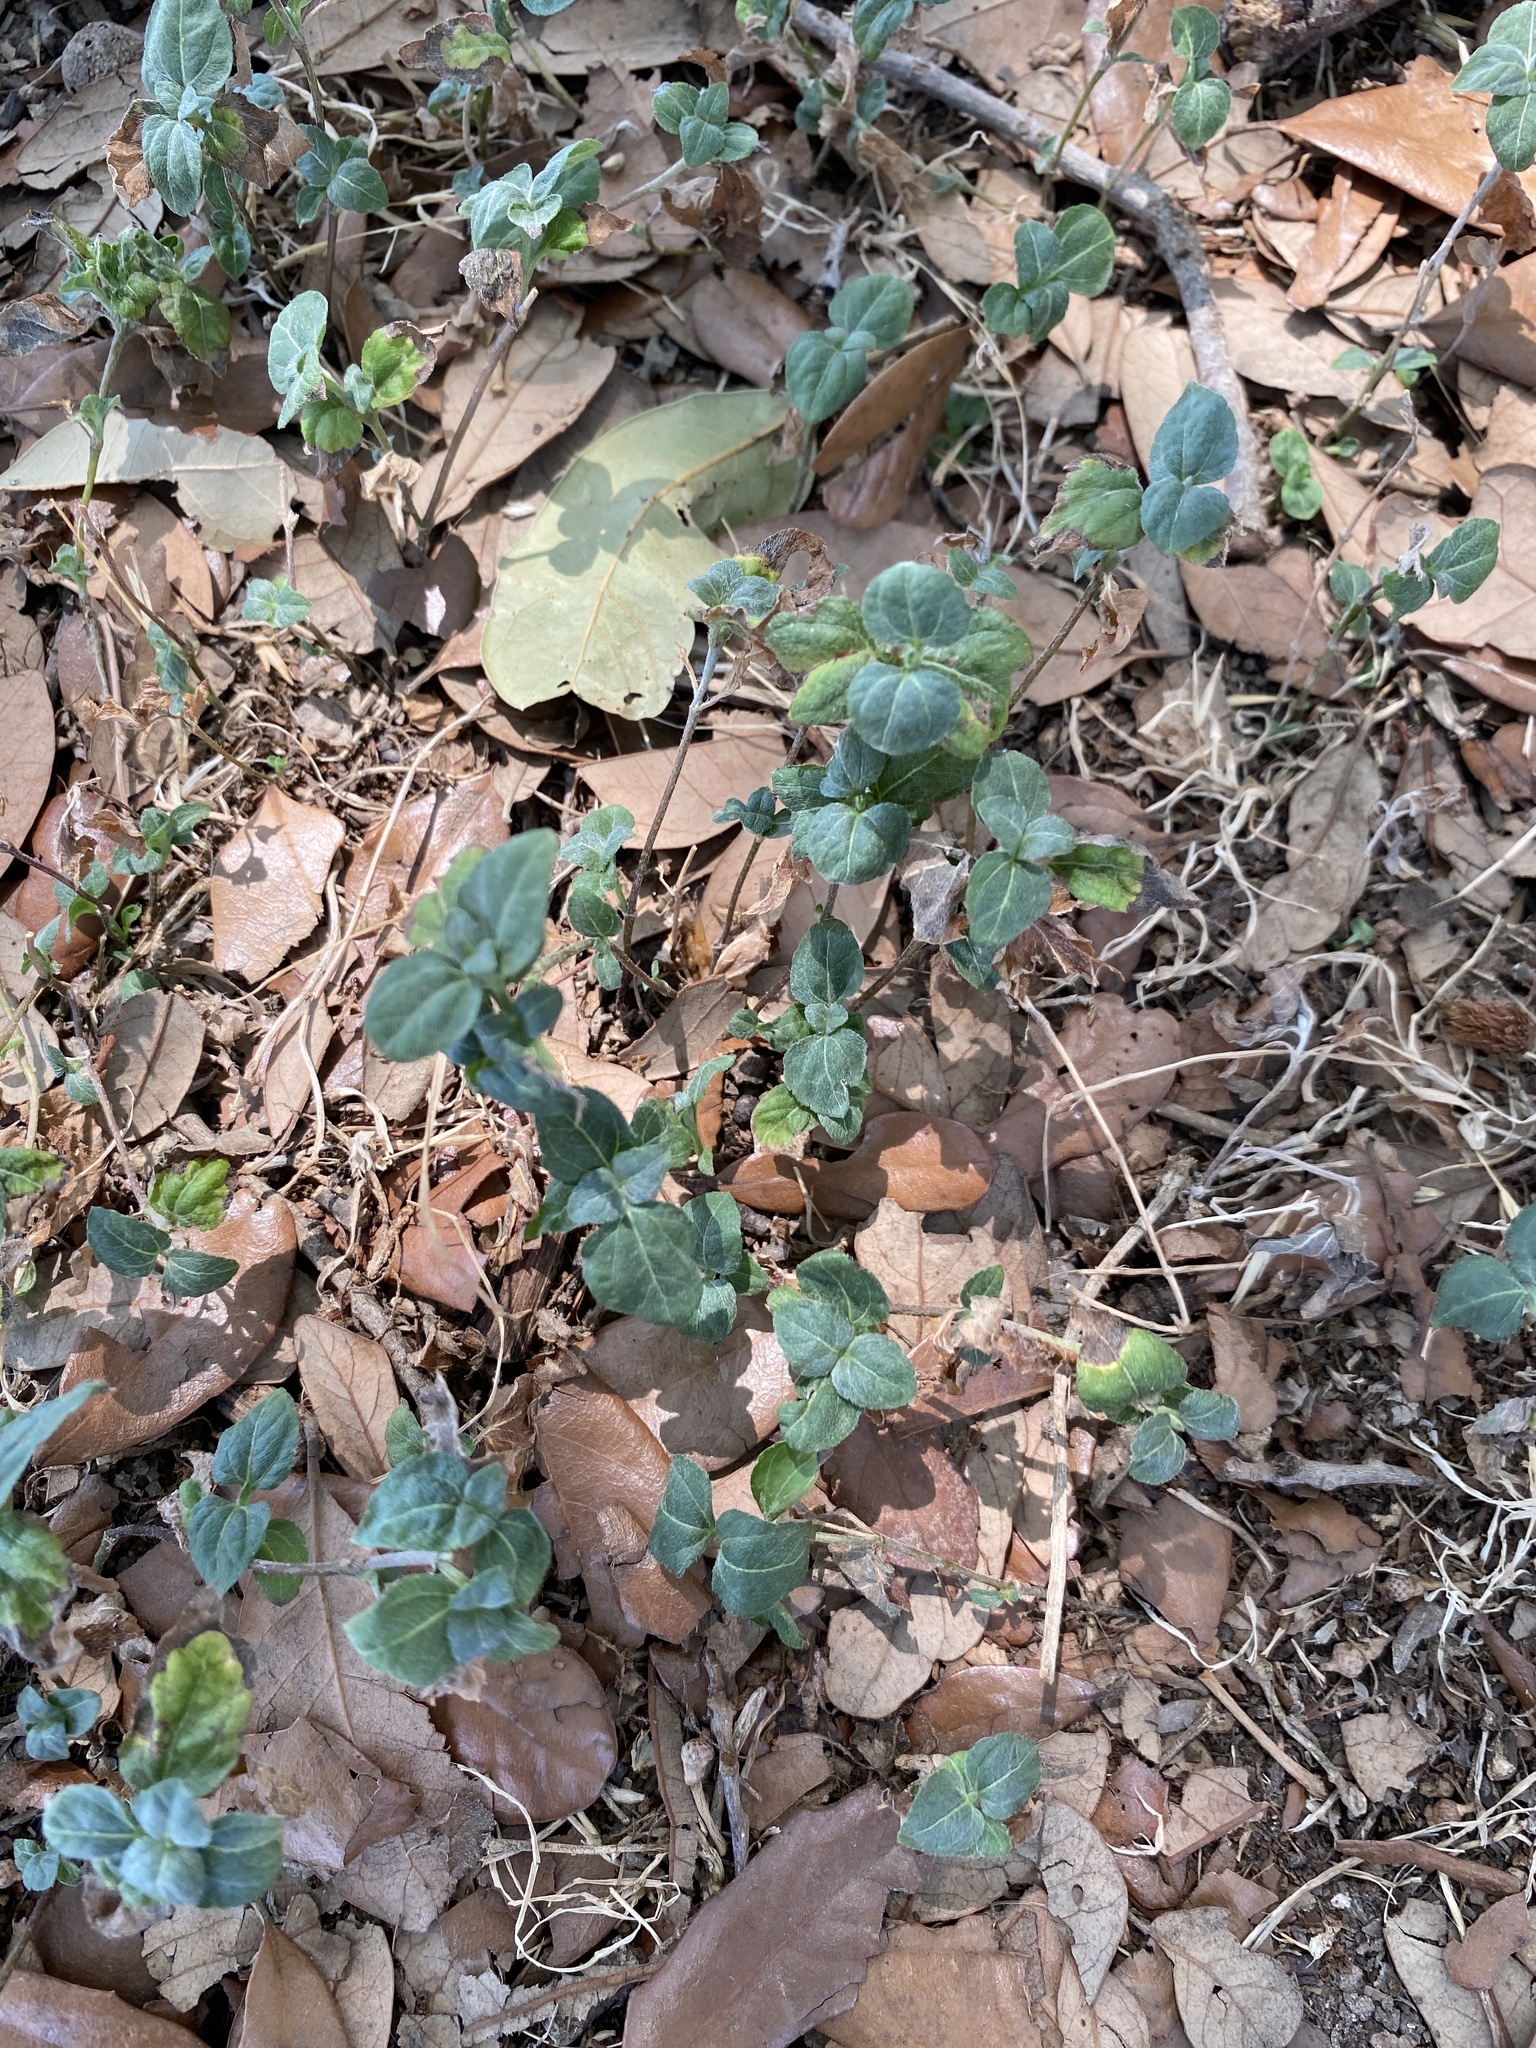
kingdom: Plantae
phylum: Tracheophyta
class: Magnoliopsida
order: Asterales
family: Asteraceae
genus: Calyptocarpus
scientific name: Calyptocarpus vialis
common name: Straggler daisy
